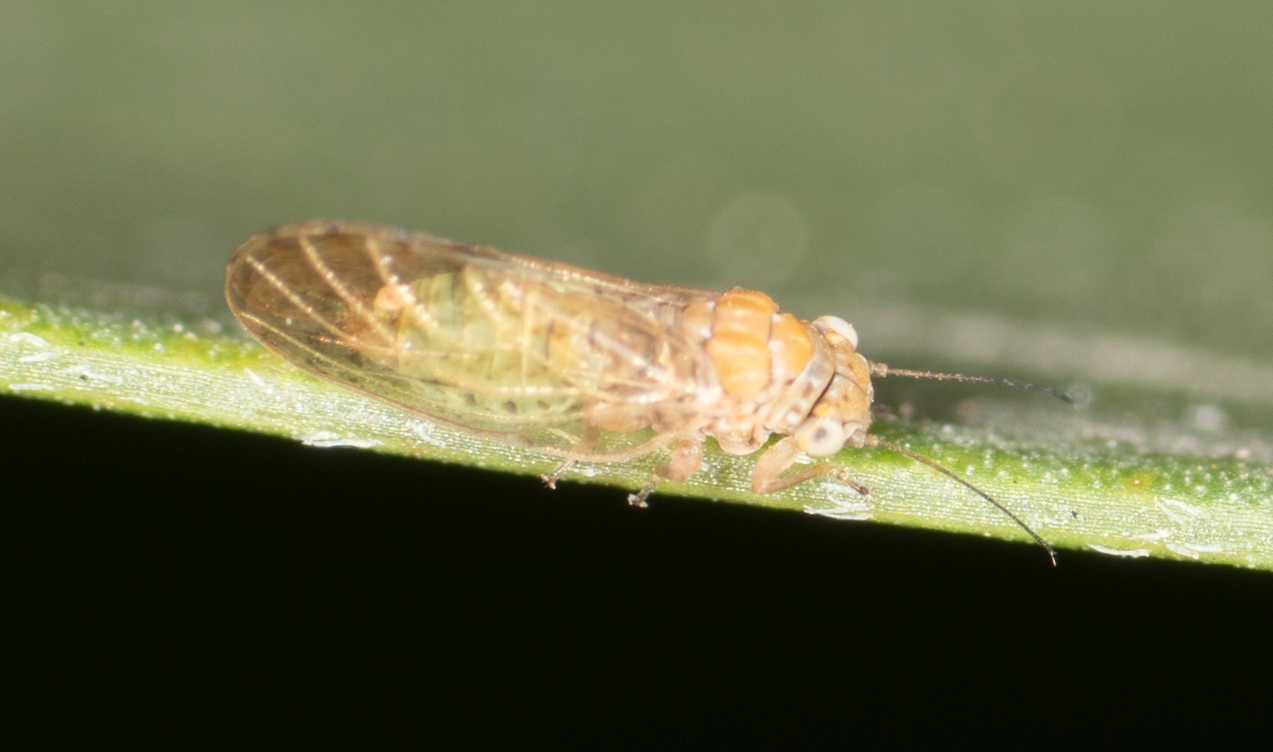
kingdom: Animalia
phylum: Arthropoda
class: Insecta
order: Hemiptera
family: Psyllidae
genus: Acizzia
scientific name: Acizzia uncatoides
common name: Psyllid
